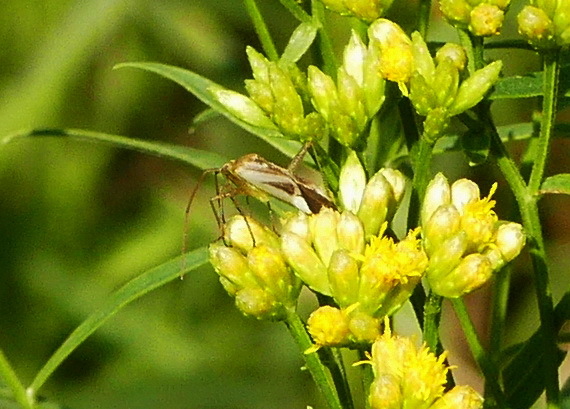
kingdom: Animalia
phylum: Arthropoda
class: Insecta
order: Hemiptera
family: Miridae
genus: Adelphocoris
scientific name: Adelphocoris lineolatus
